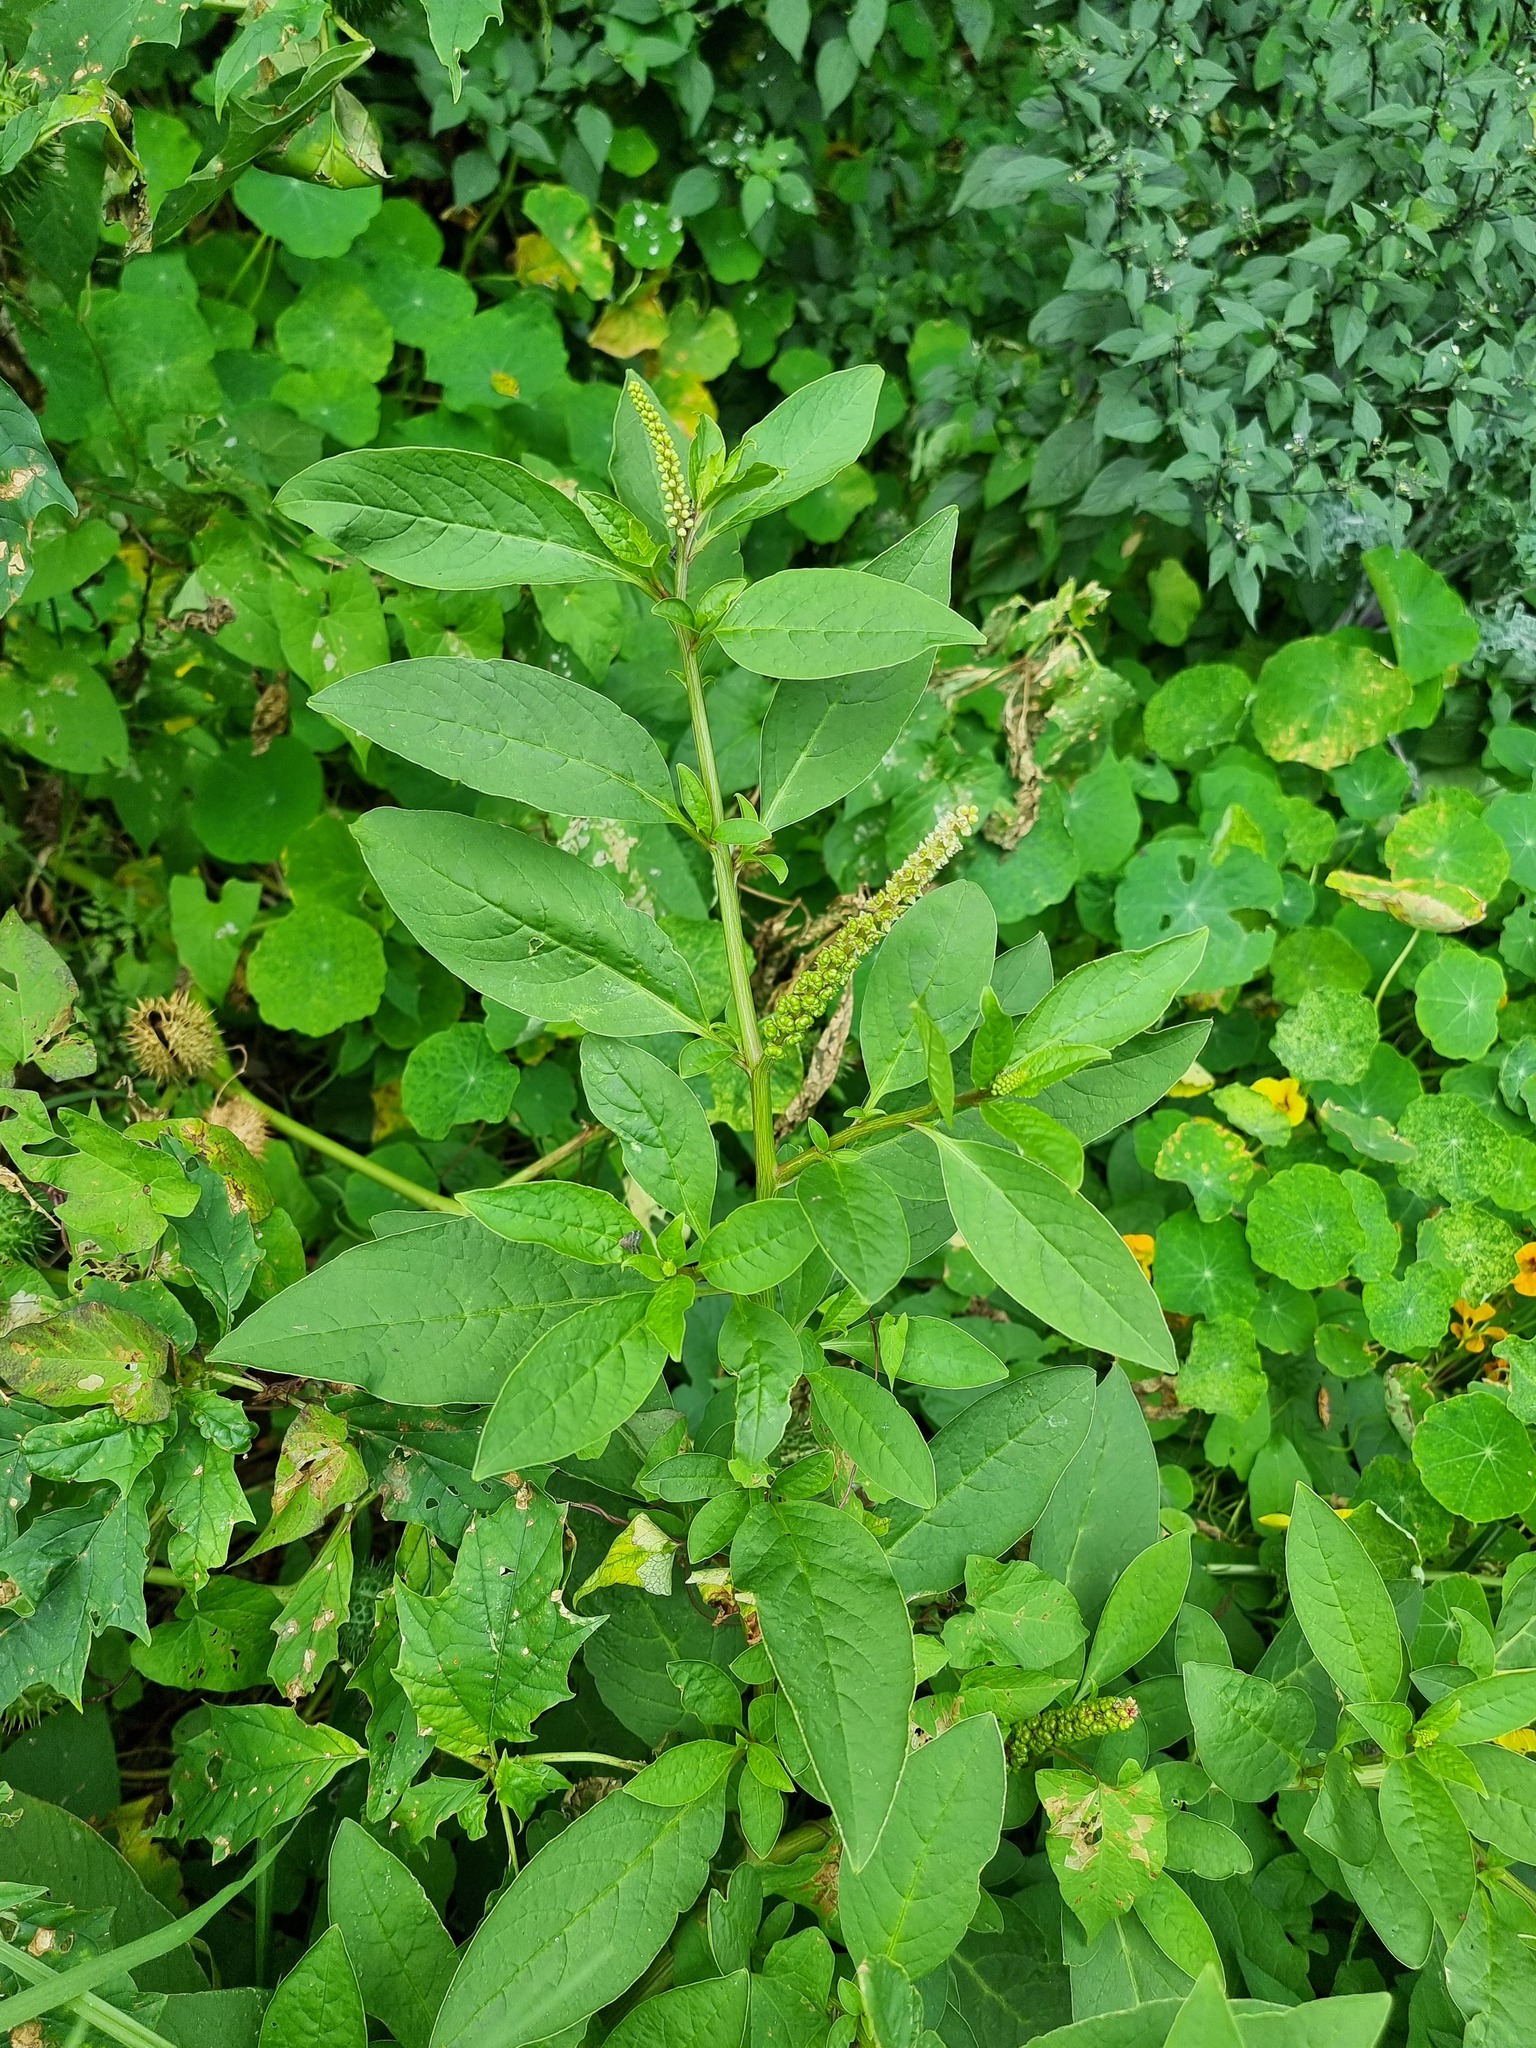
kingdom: Plantae
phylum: Tracheophyta
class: Magnoliopsida
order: Caryophyllales
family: Phytolaccaceae
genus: Phytolacca
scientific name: Phytolacca icosandra
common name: Button pokeweed
